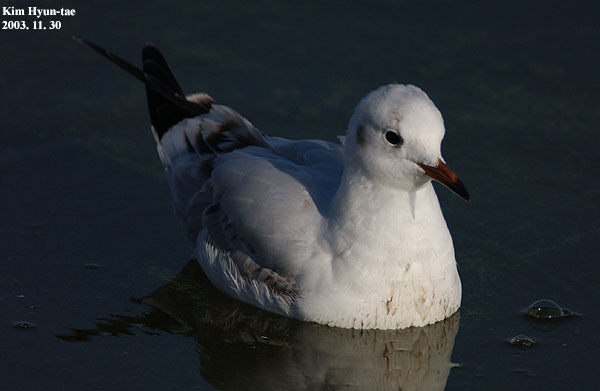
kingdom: Animalia
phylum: Chordata
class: Aves
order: Charadriiformes
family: Laridae
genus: Chroicocephalus
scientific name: Chroicocephalus ridibundus
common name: Black-headed gull
